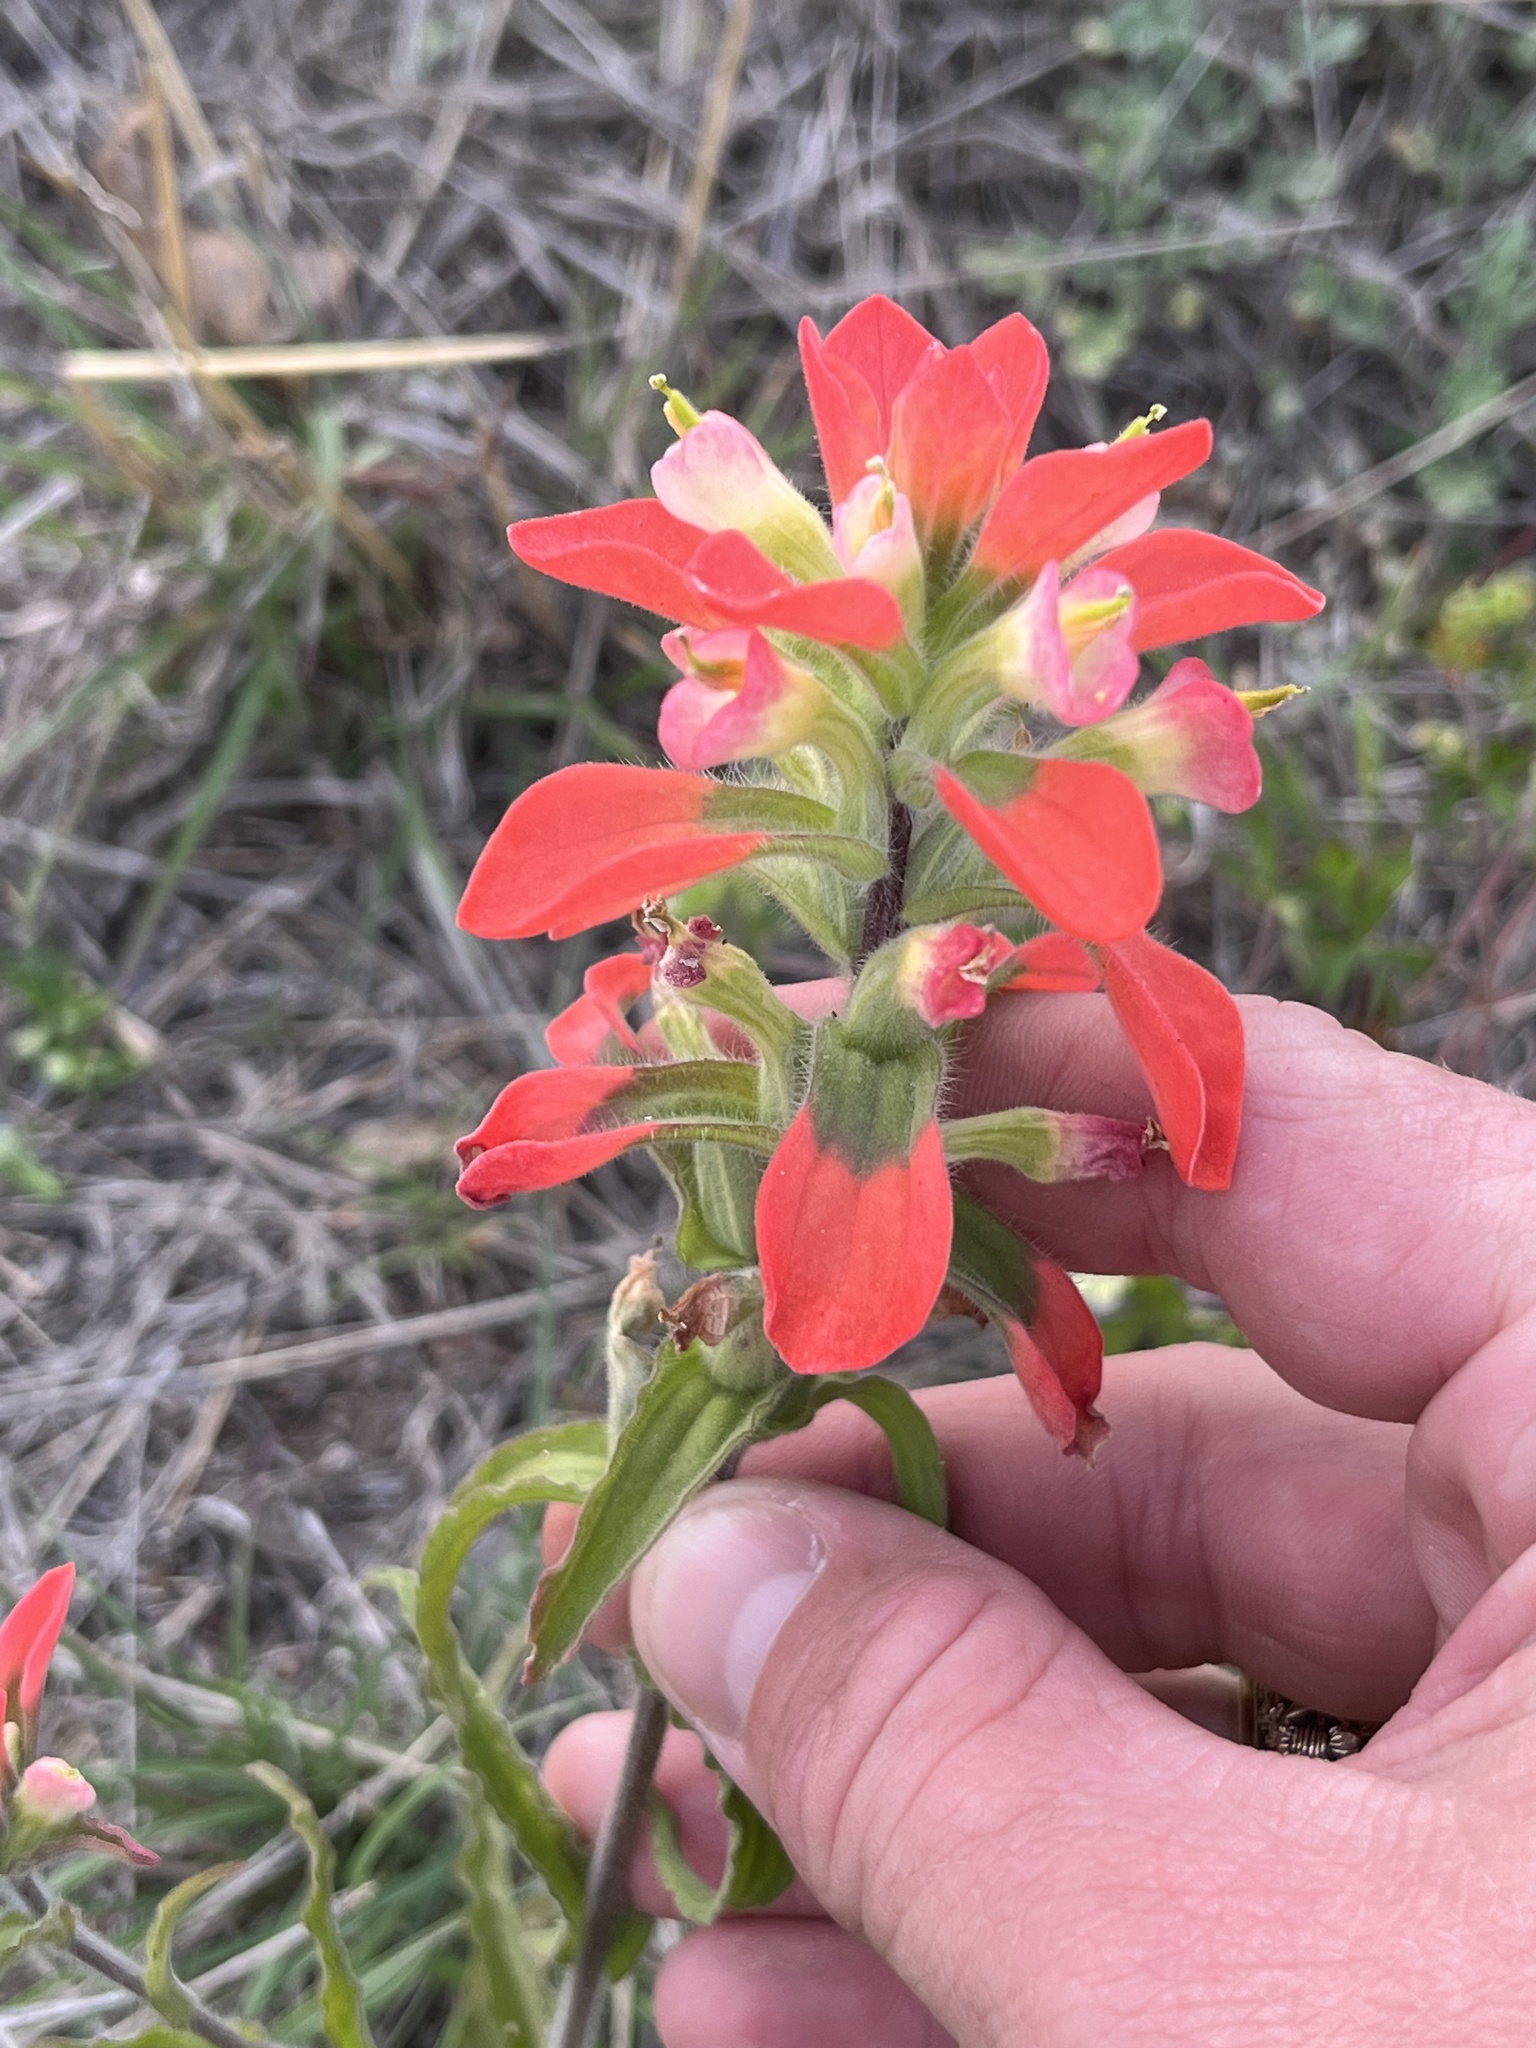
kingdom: Plantae
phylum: Tracheophyta
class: Magnoliopsida
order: Lamiales
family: Orobanchaceae
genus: Castilleja
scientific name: Castilleja indivisa
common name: Texas paintbrush
